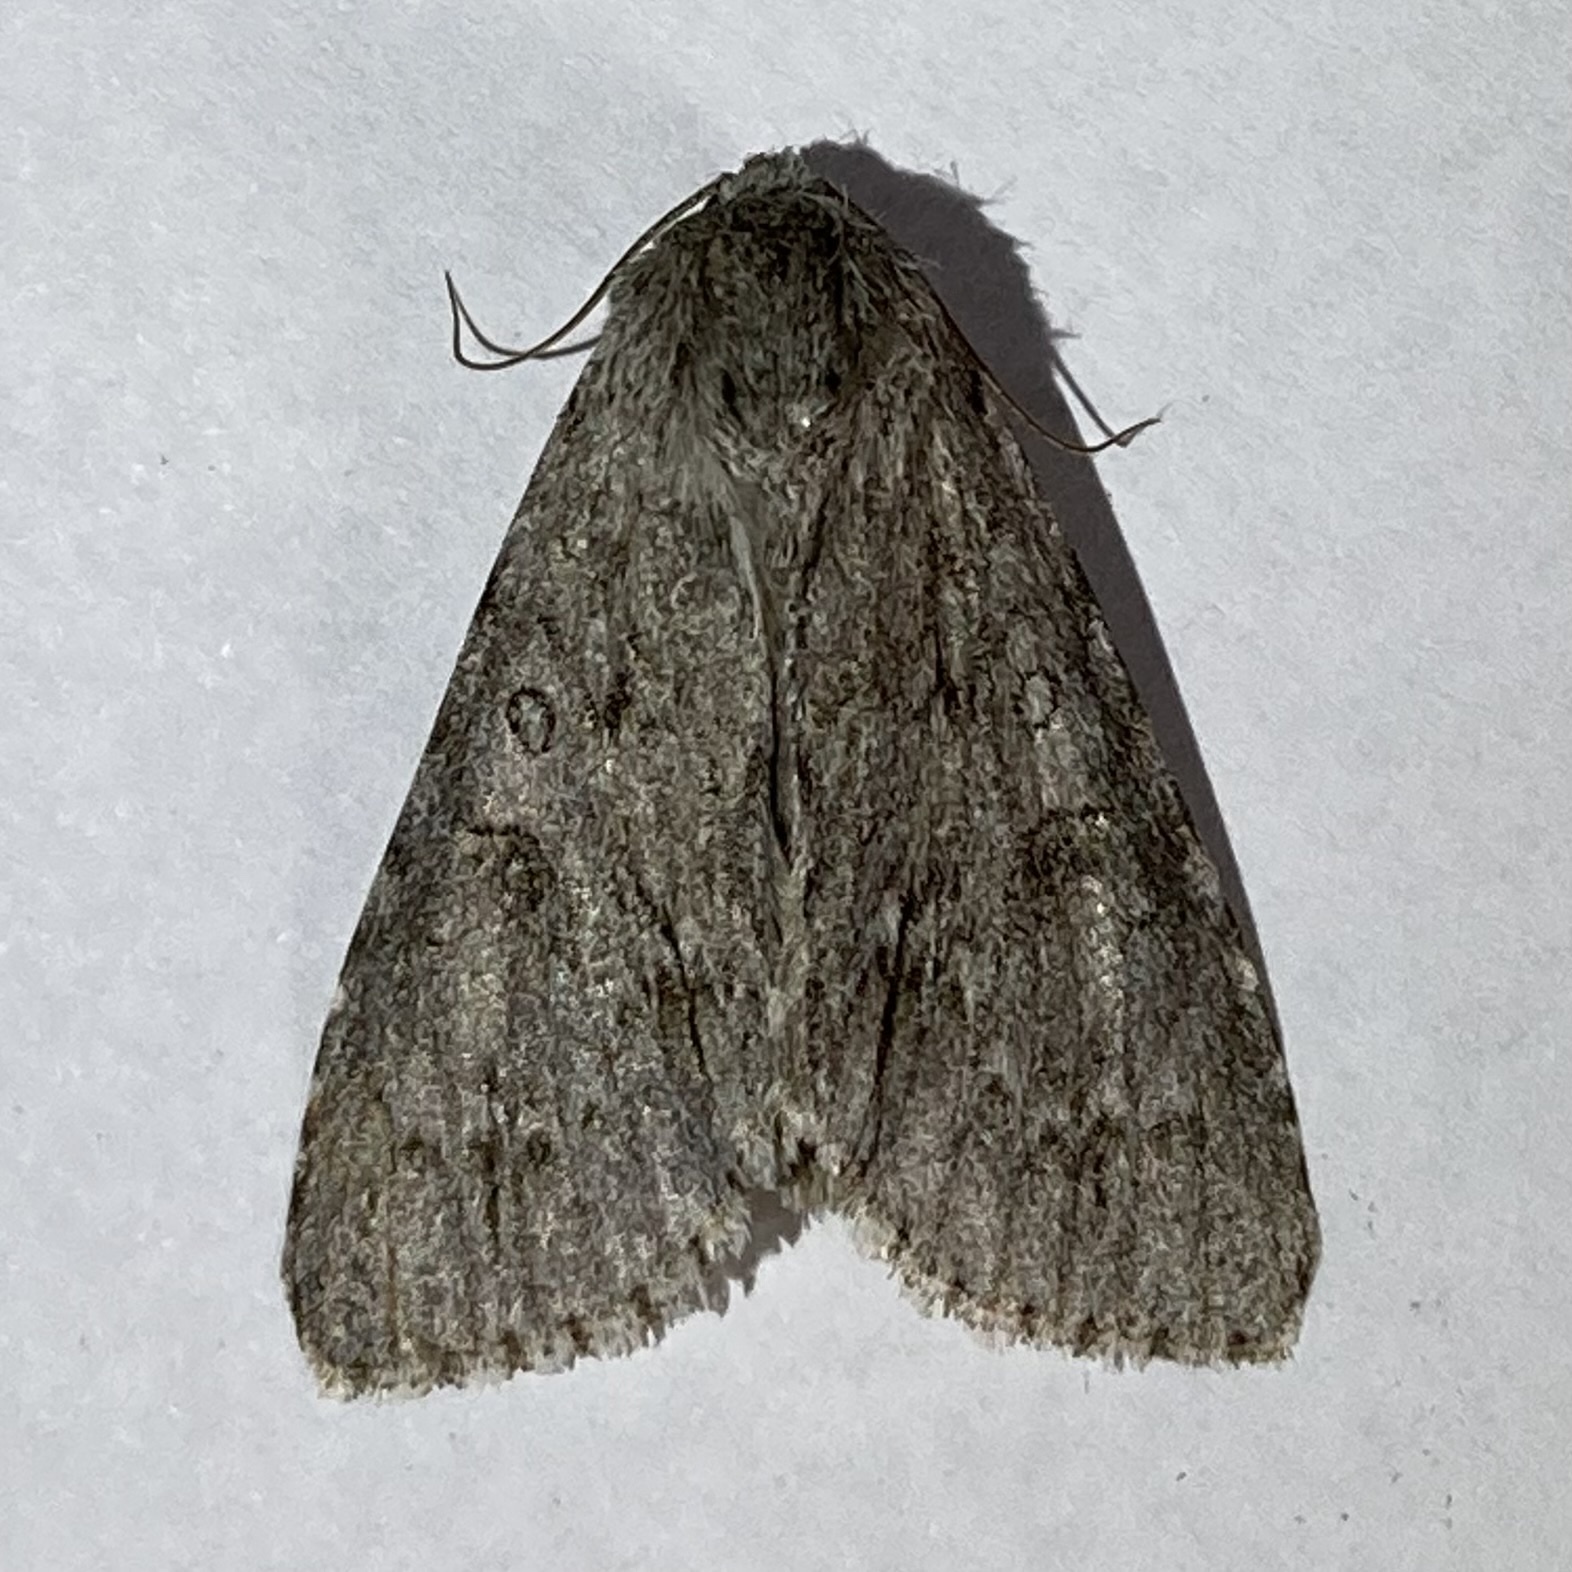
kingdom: Animalia
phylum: Arthropoda
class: Insecta
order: Lepidoptera
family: Noctuidae
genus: Acronicta
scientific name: Acronicta americana
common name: American dagger
